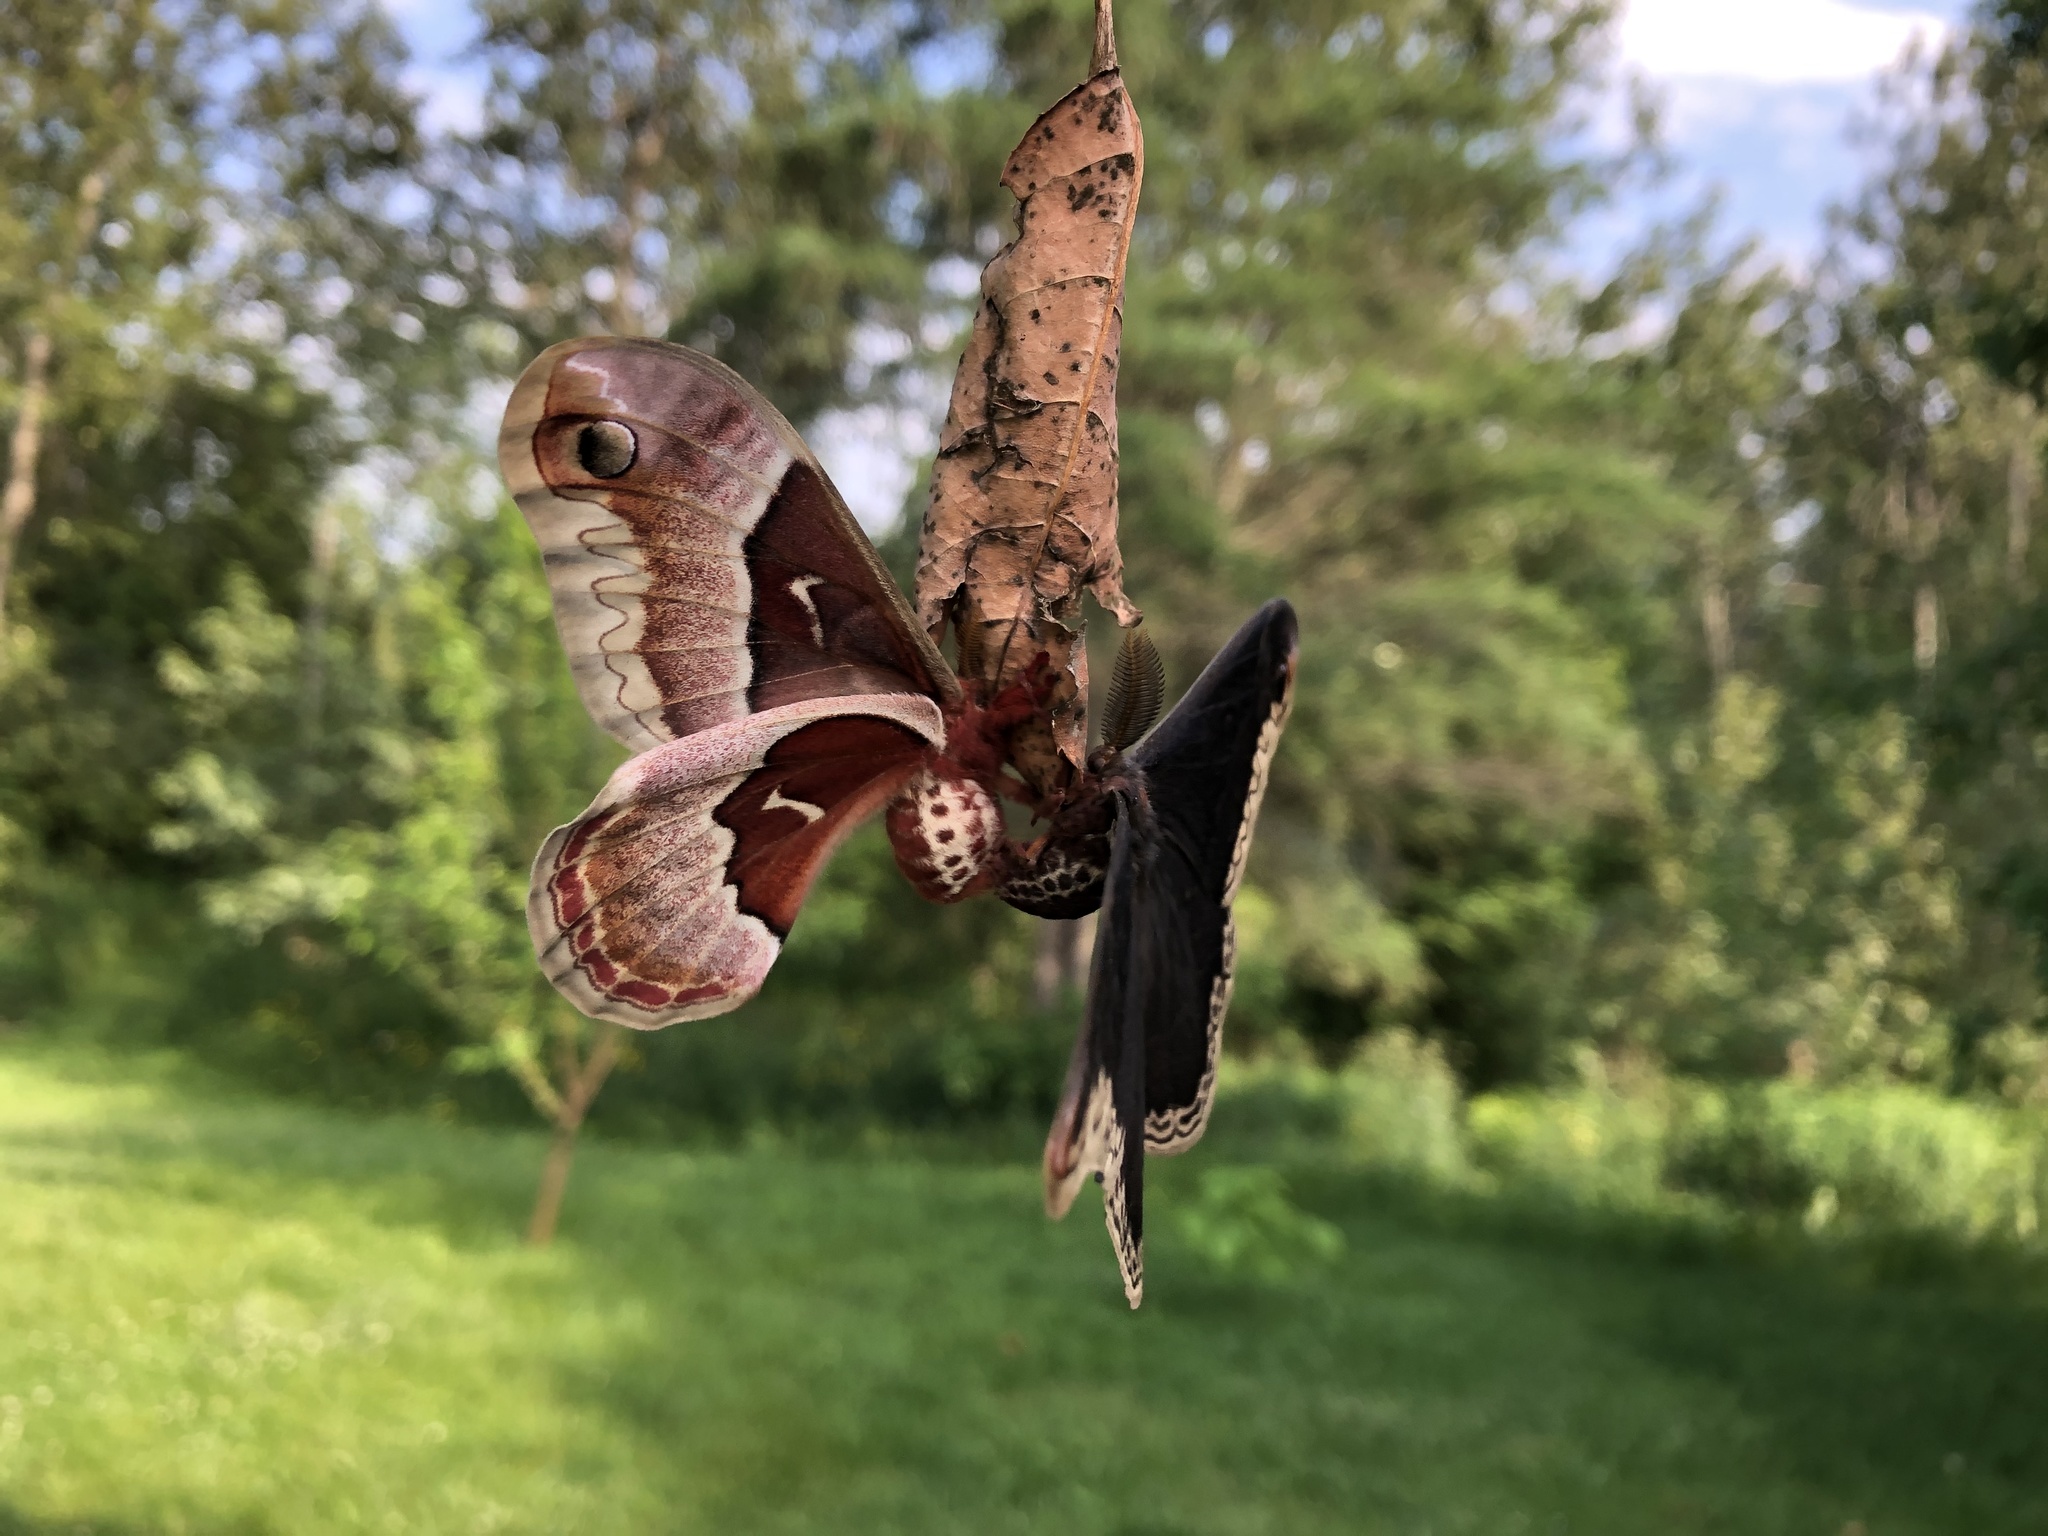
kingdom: Animalia
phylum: Arthropoda
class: Insecta
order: Lepidoptera
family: Saturniidae
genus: Callosamia
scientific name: Callosamia promethea
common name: Promethea silkmoth
